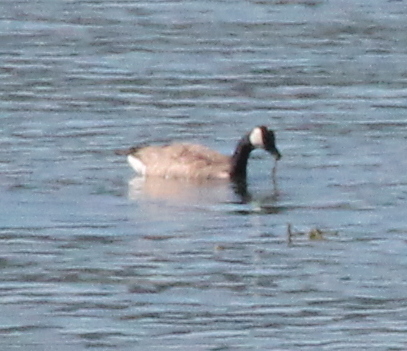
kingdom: Animalia
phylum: Chordata
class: Aves
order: Anseriformes
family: Anatidae
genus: Branta
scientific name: Branta canadensis
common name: Canada goose
